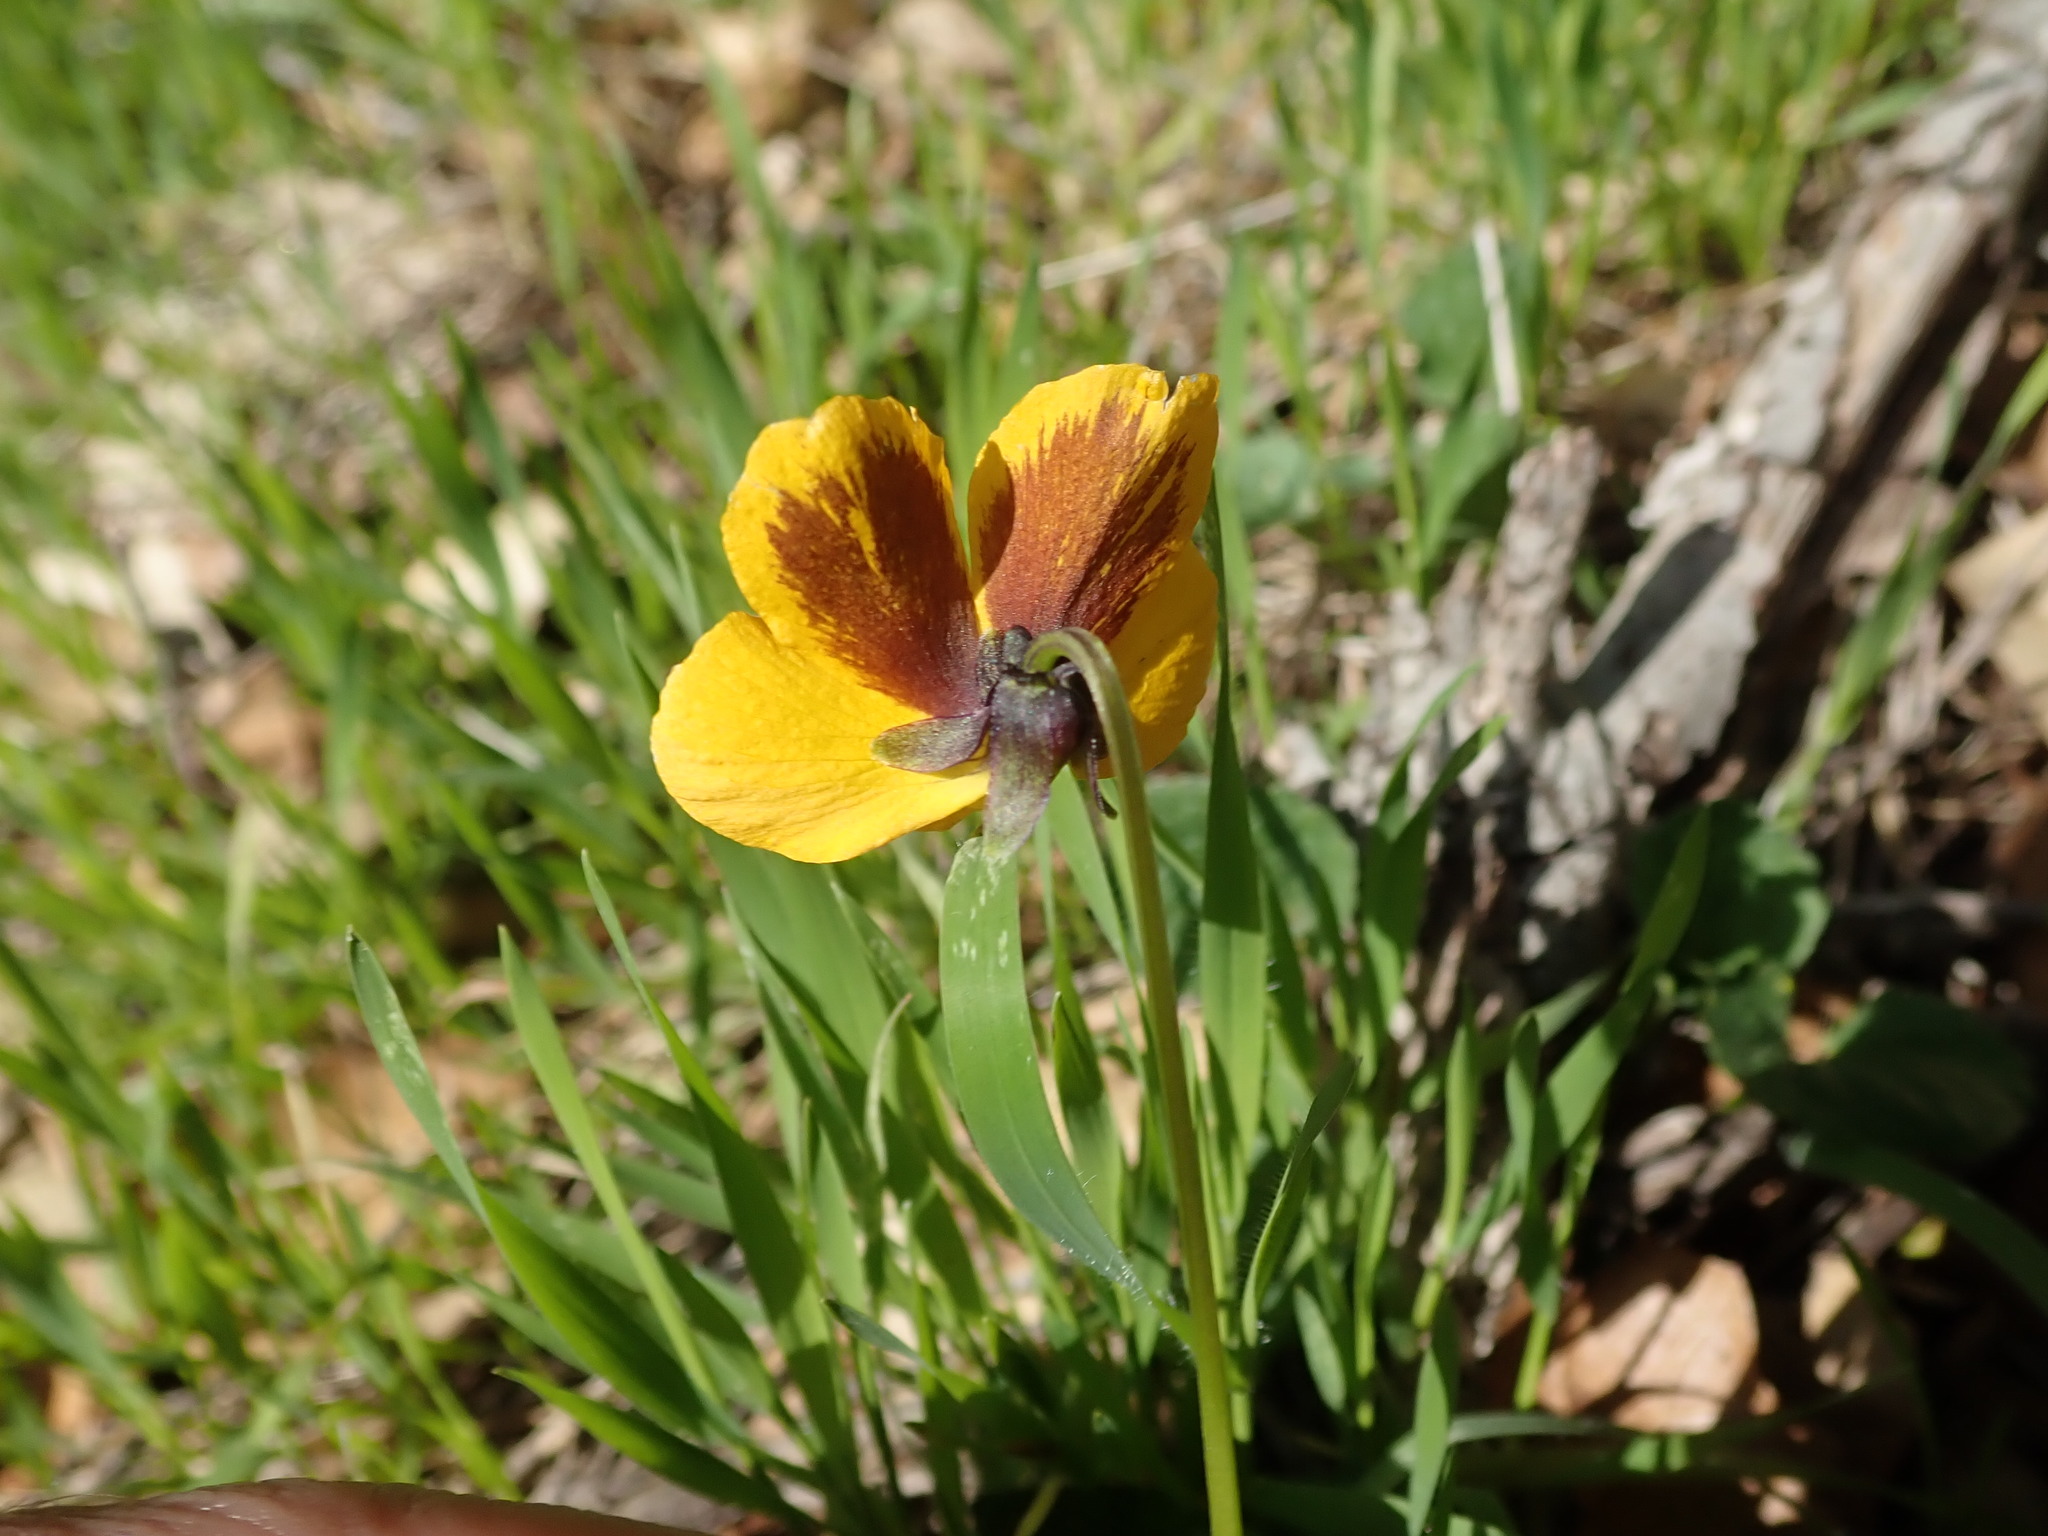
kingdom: Plantae
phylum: Tracheophyta
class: Magnoliopsida
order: Malpighiales
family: Violaceae
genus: Viola
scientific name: Viola pedunculata
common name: California golden violet
